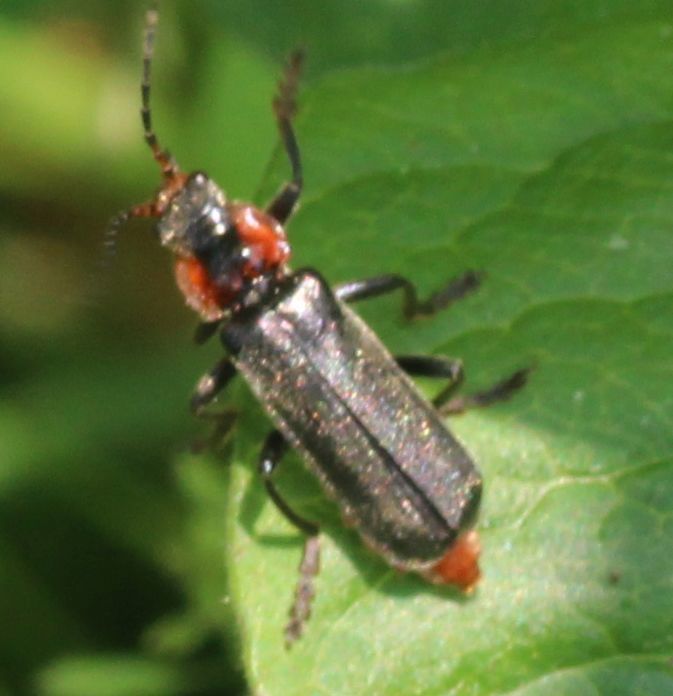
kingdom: Animalia
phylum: Arthropoda
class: Insecta
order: Coleoptera
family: Cantharidae
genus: Cantharis
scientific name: Cantharis fusca
